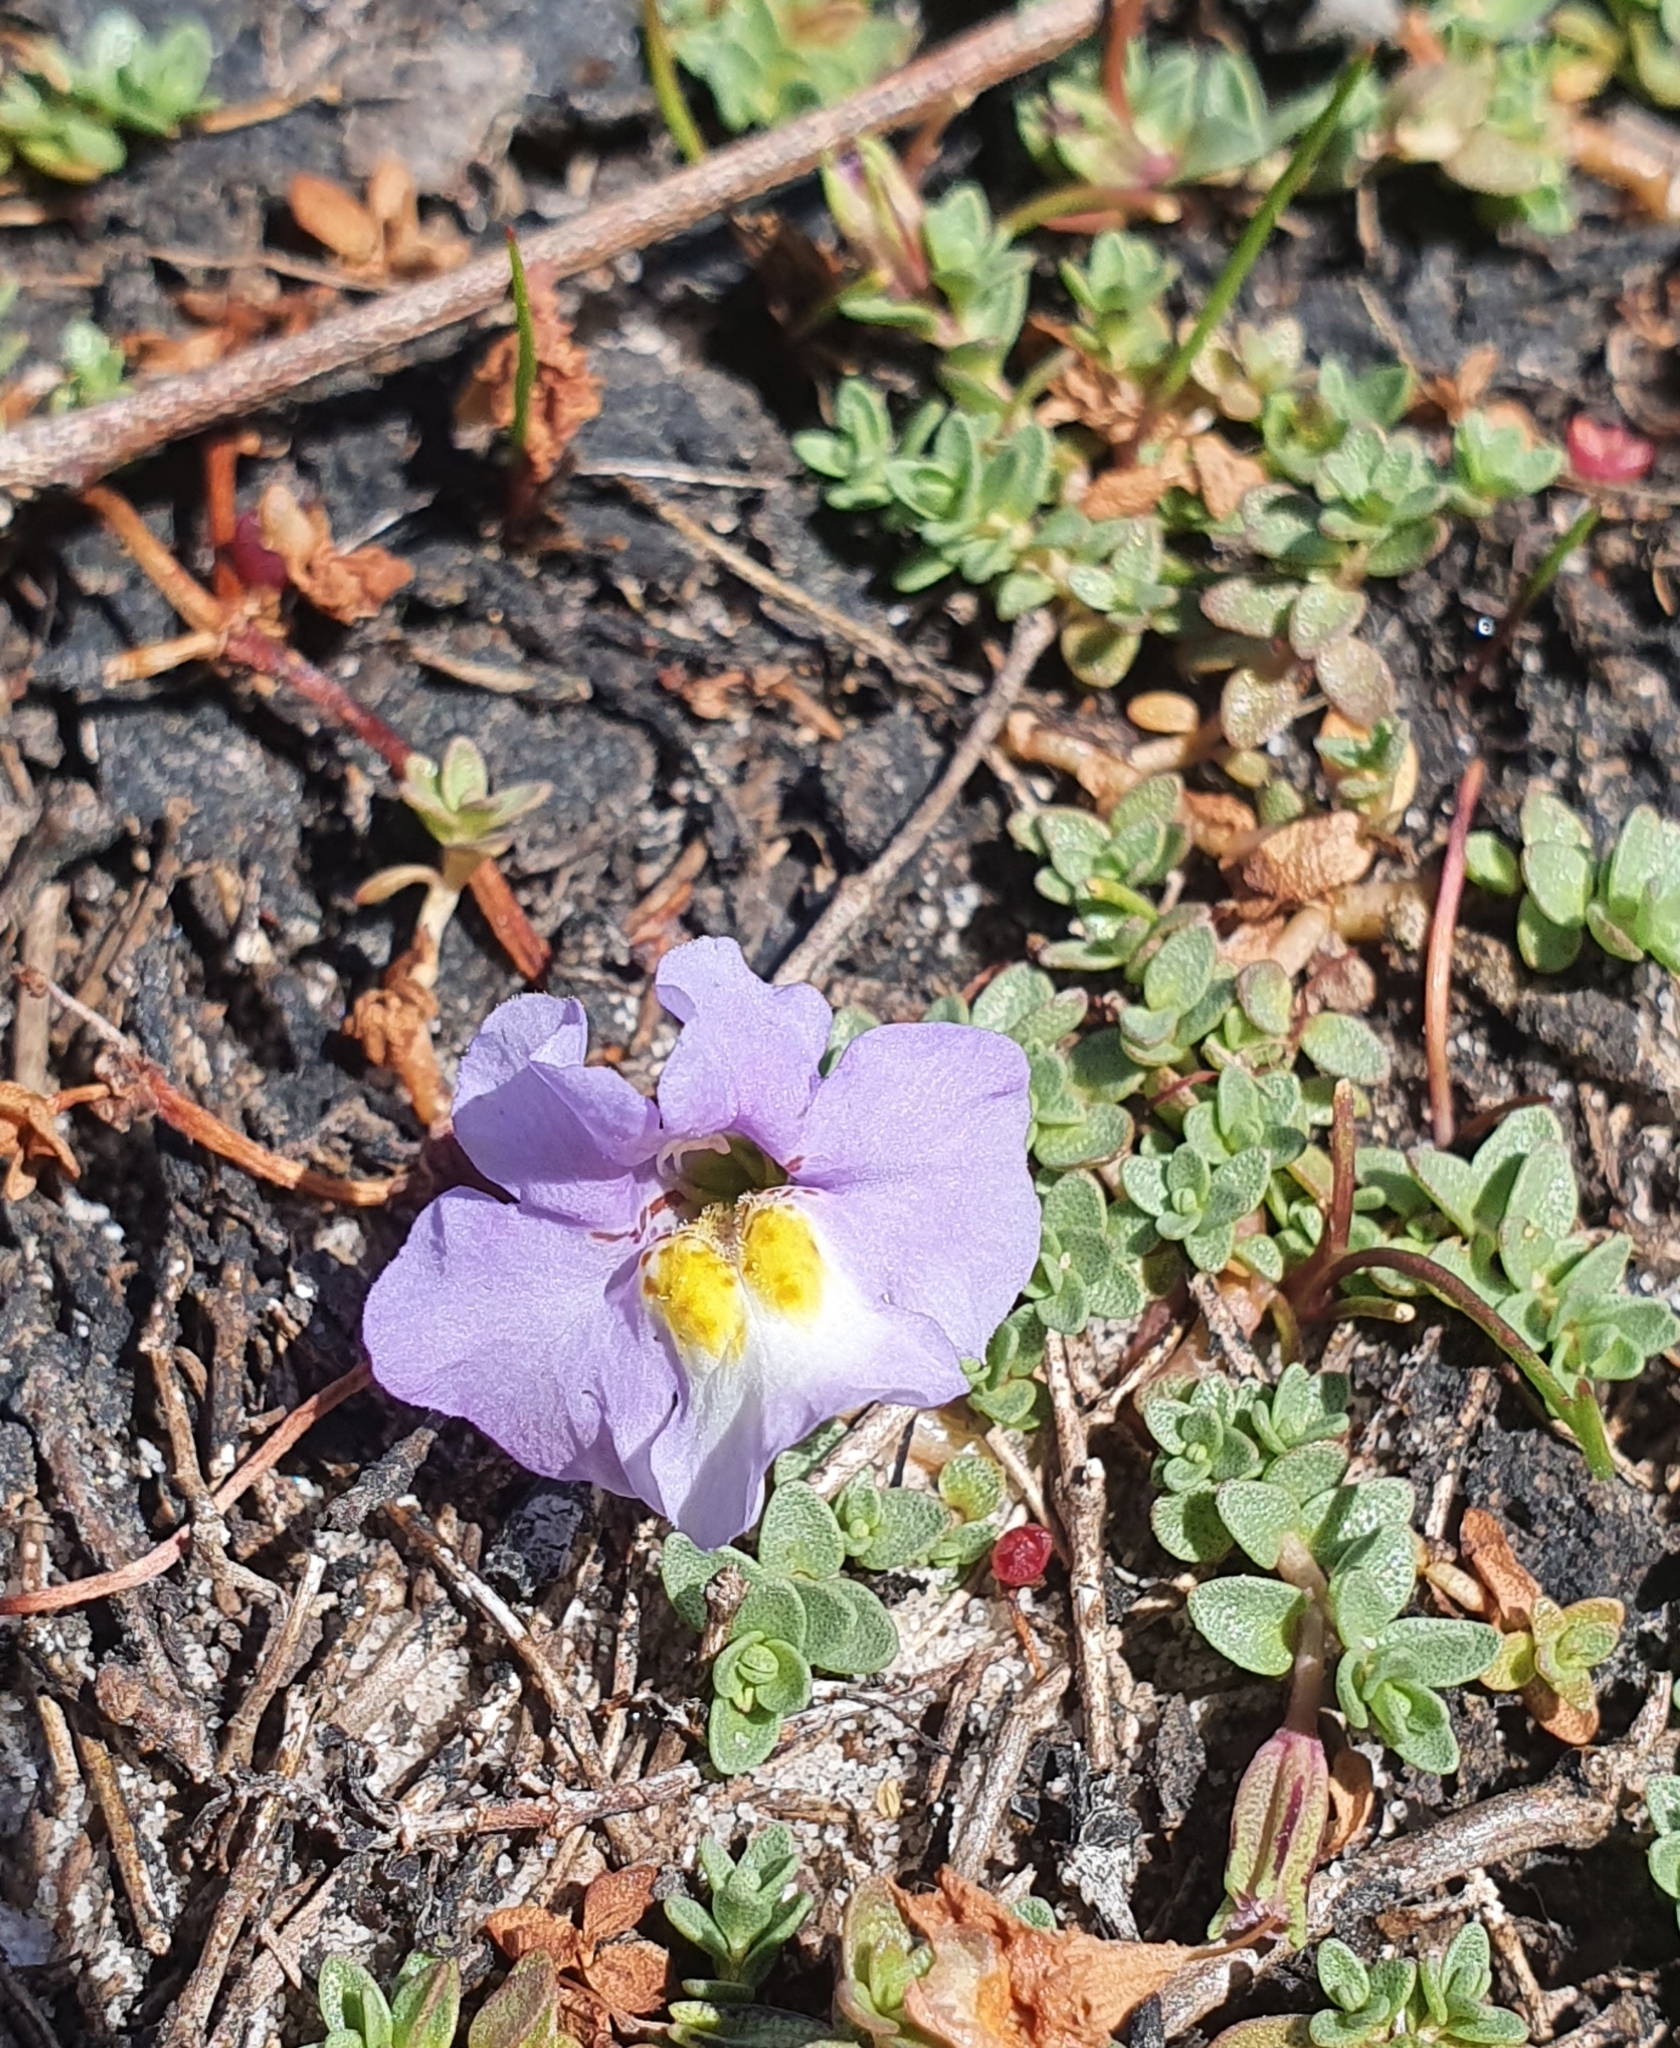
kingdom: Plantae
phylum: Tracheophyta
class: Magnoliopsida
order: Lamiales
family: Phrymaceae
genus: Thyridia
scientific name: Thyridia repens
